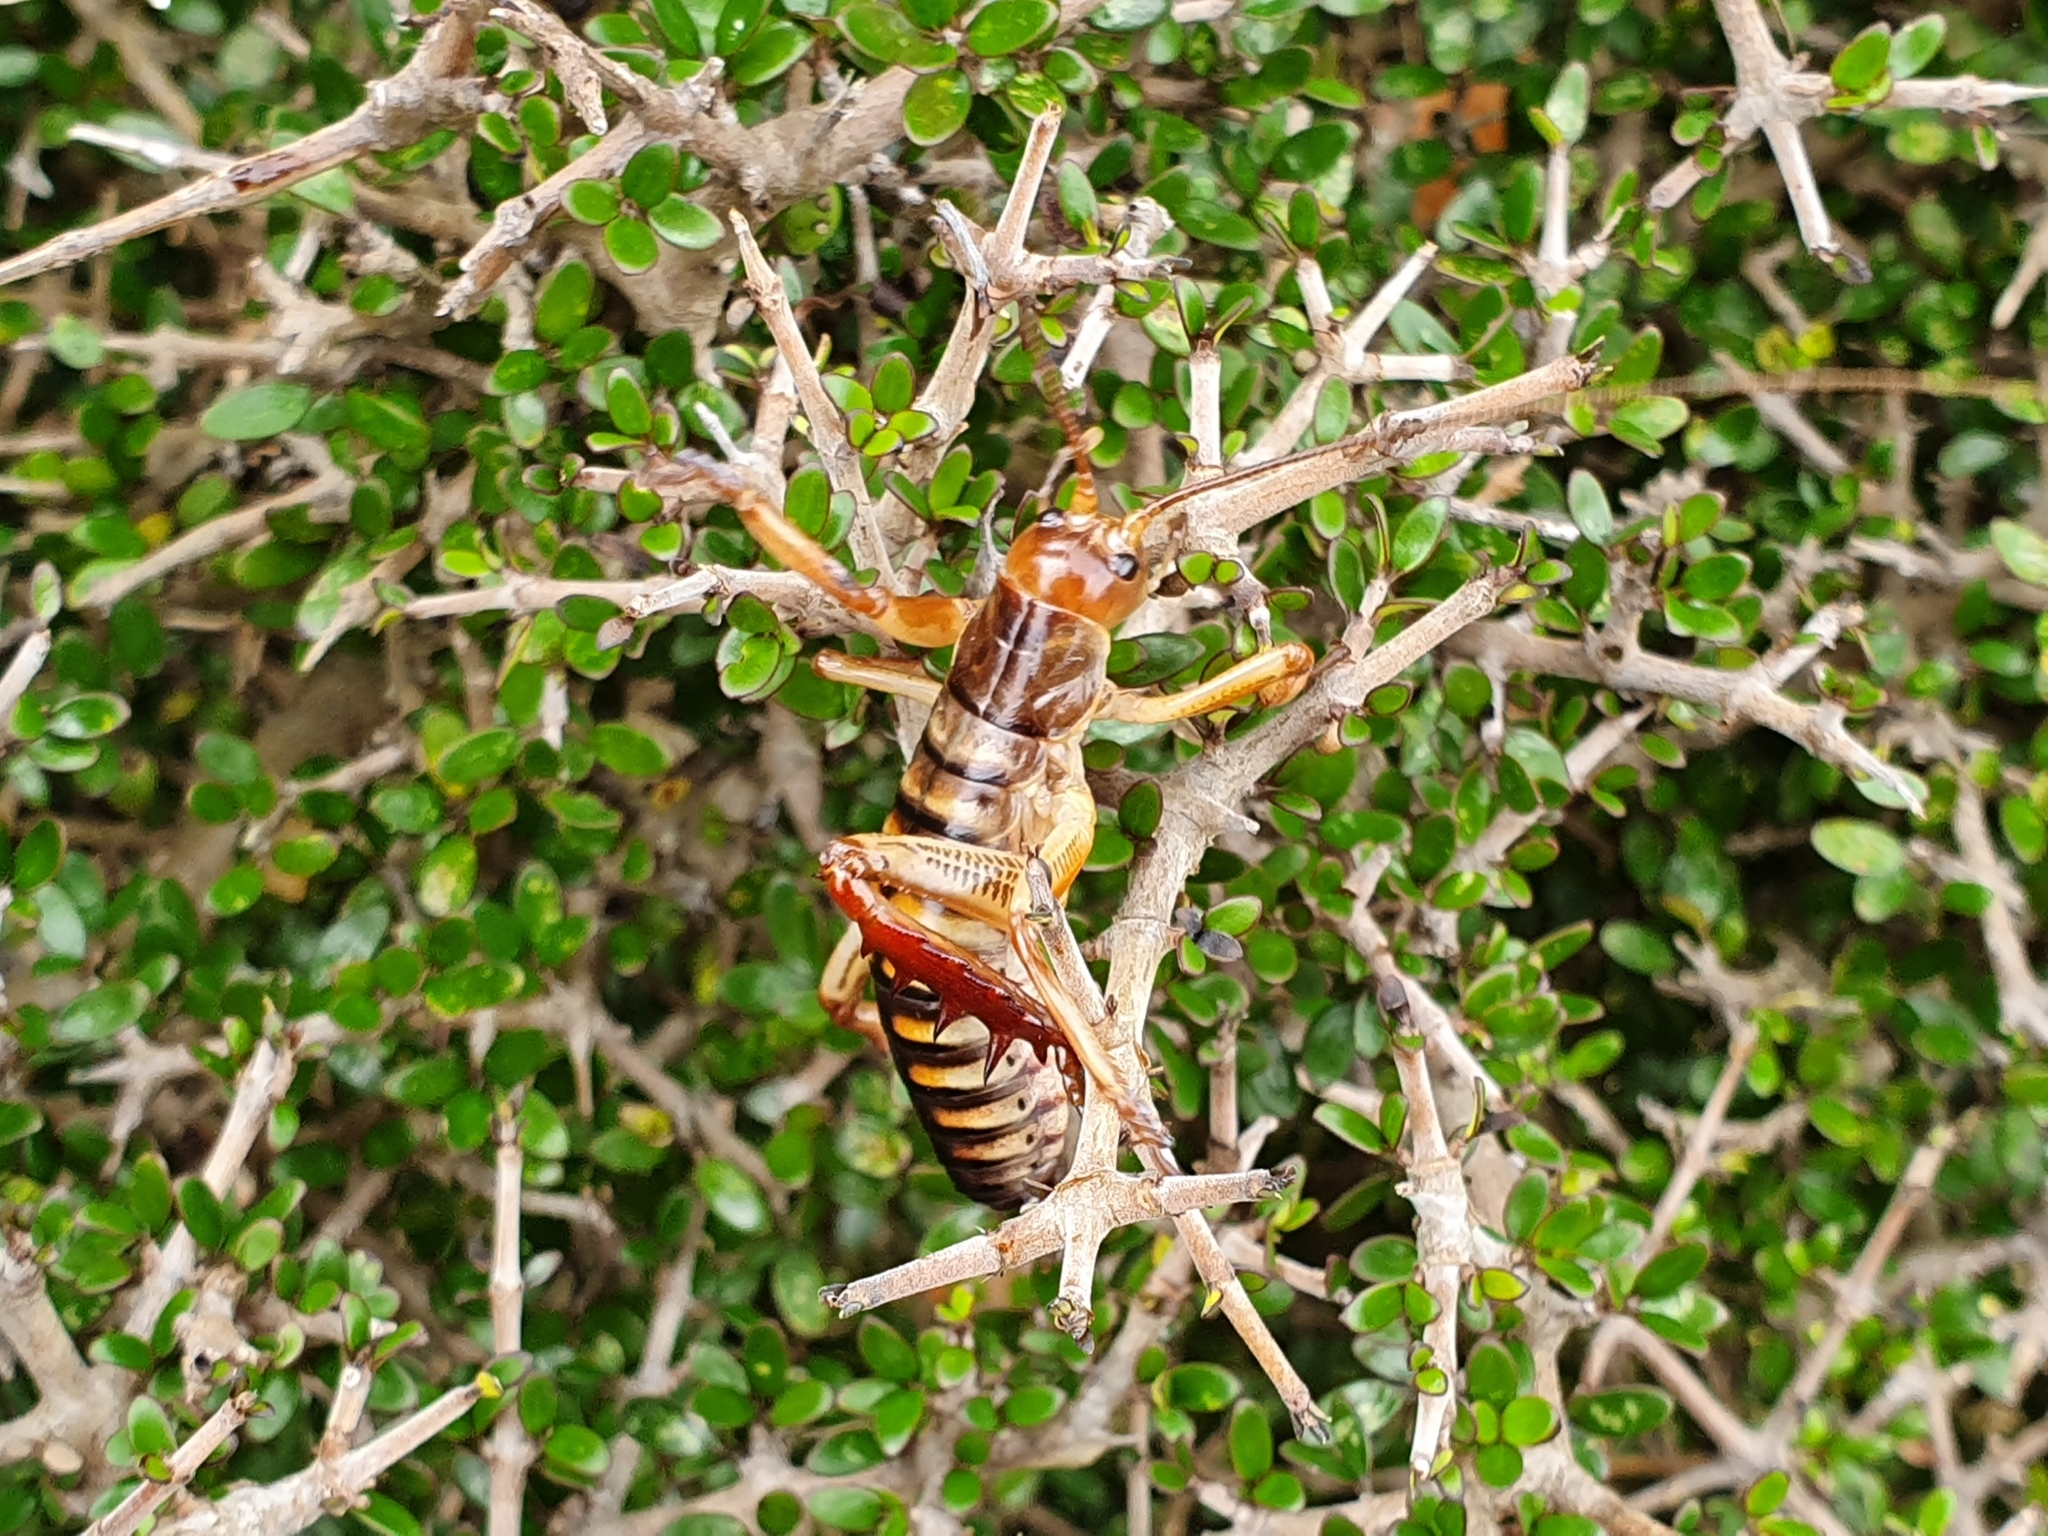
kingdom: Animalia
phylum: Arthropoda
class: Insecta
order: Orthoptera
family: Anostostomatidae
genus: Hemideina
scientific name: Hemideina crassidens
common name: Wellington tree weta
